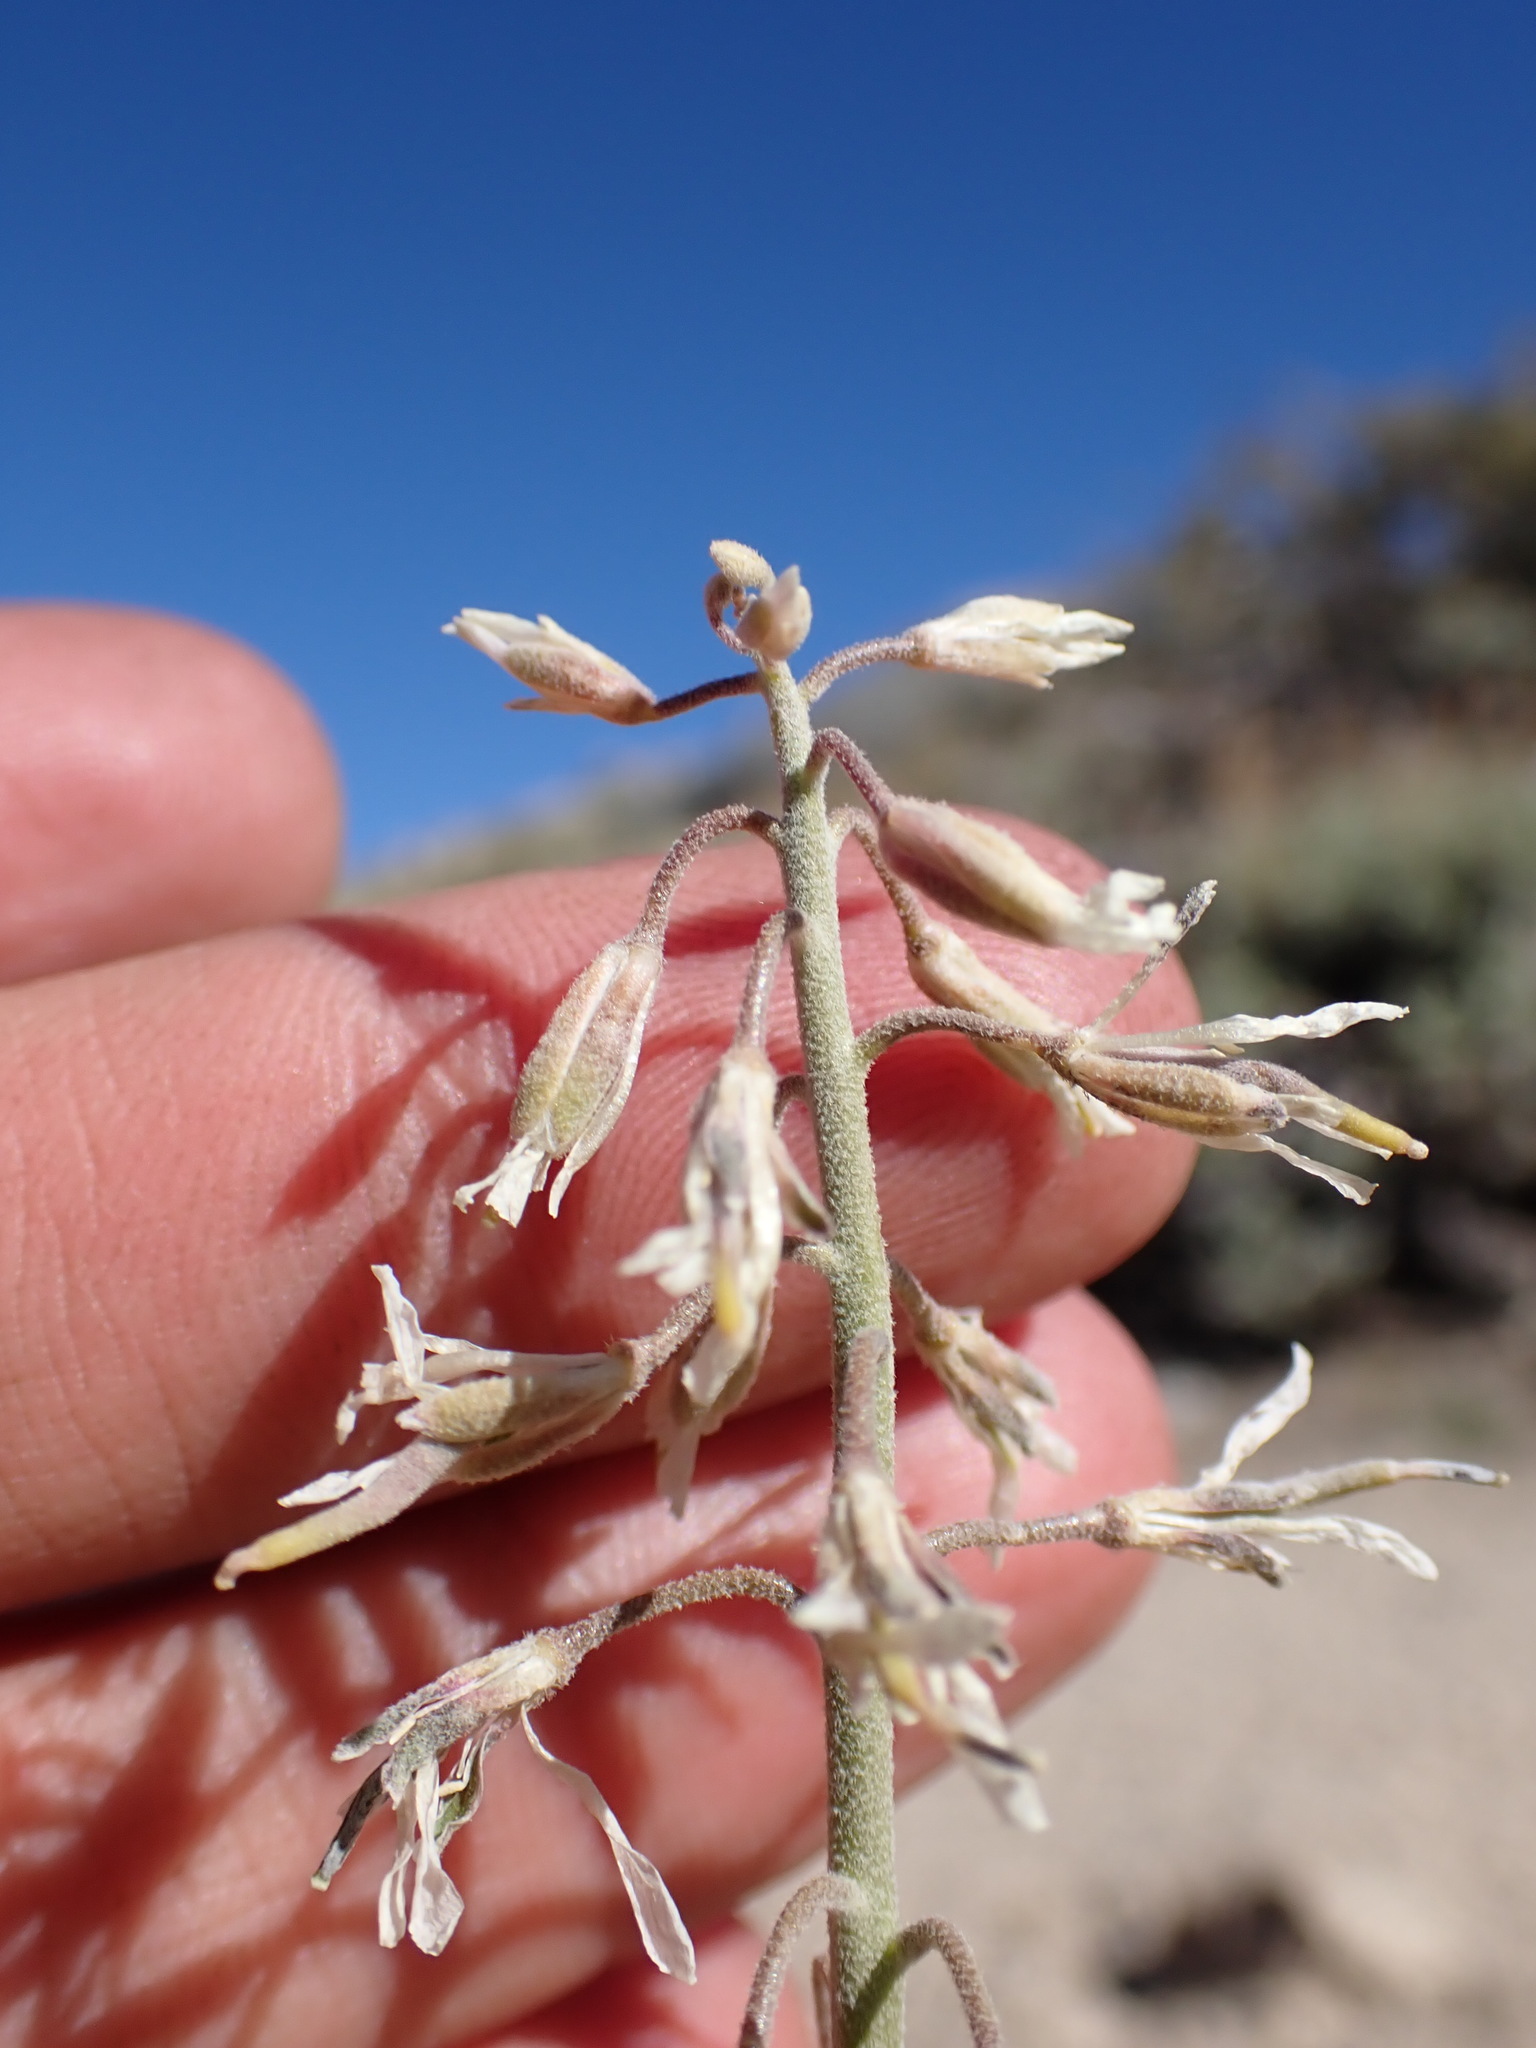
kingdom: Plantae
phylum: Tracheophyta
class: Magnoliopsida
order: Brassicales
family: Brassicaceae
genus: Boechera
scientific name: Boechera puberula
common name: Puberulent rockcress
